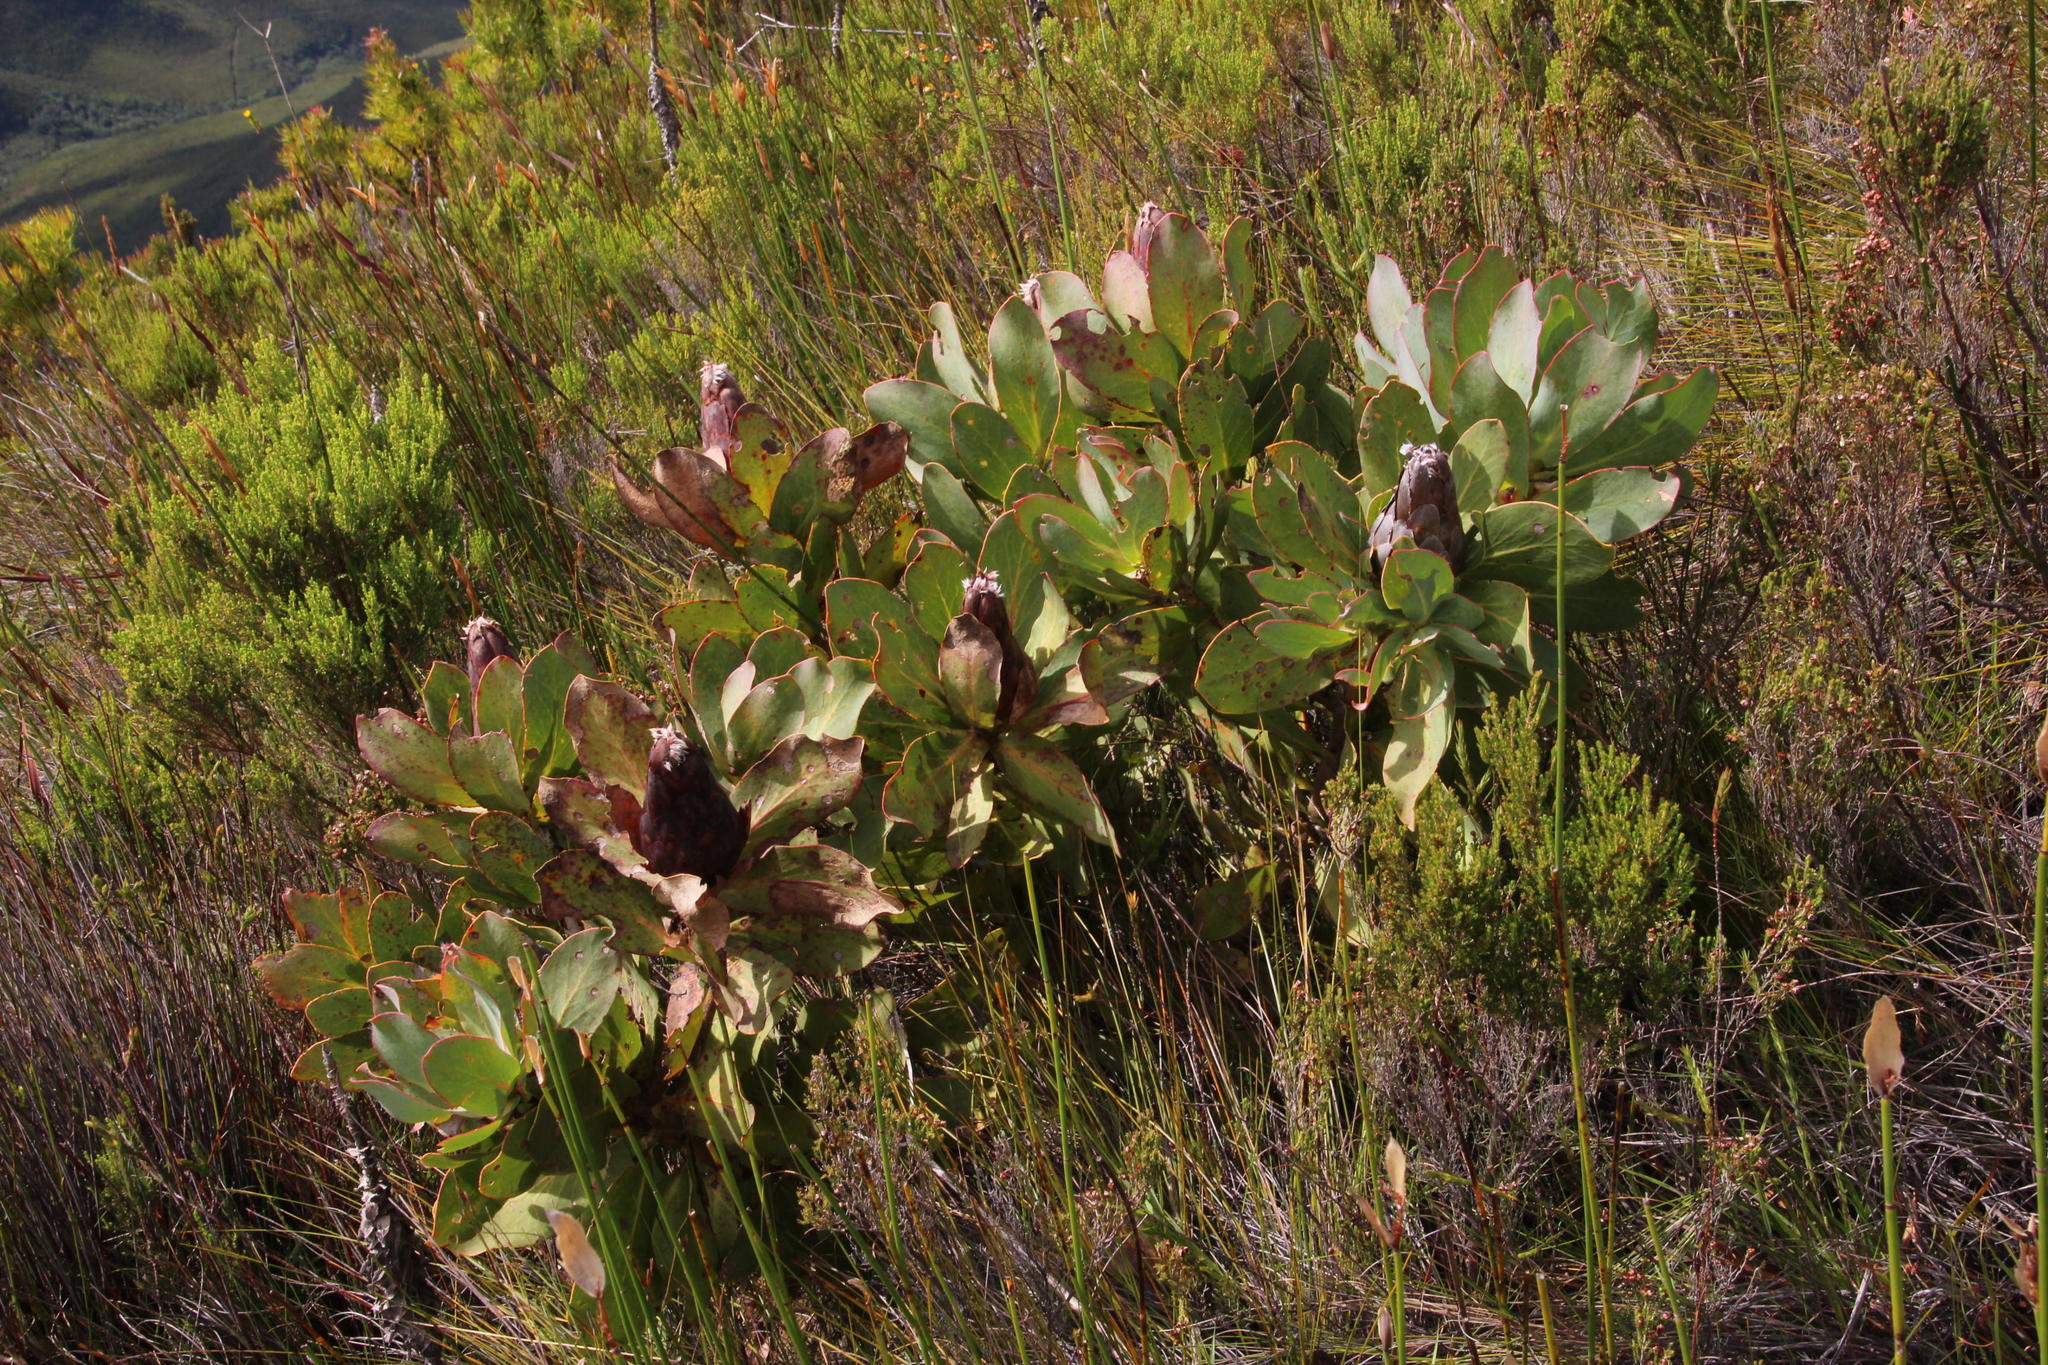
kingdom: Plantae
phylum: Tracheophyta
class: Magnoliopsida
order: Proteales
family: Proteaceae
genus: Protea
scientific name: Protea grandiceps
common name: Red sugarbush
